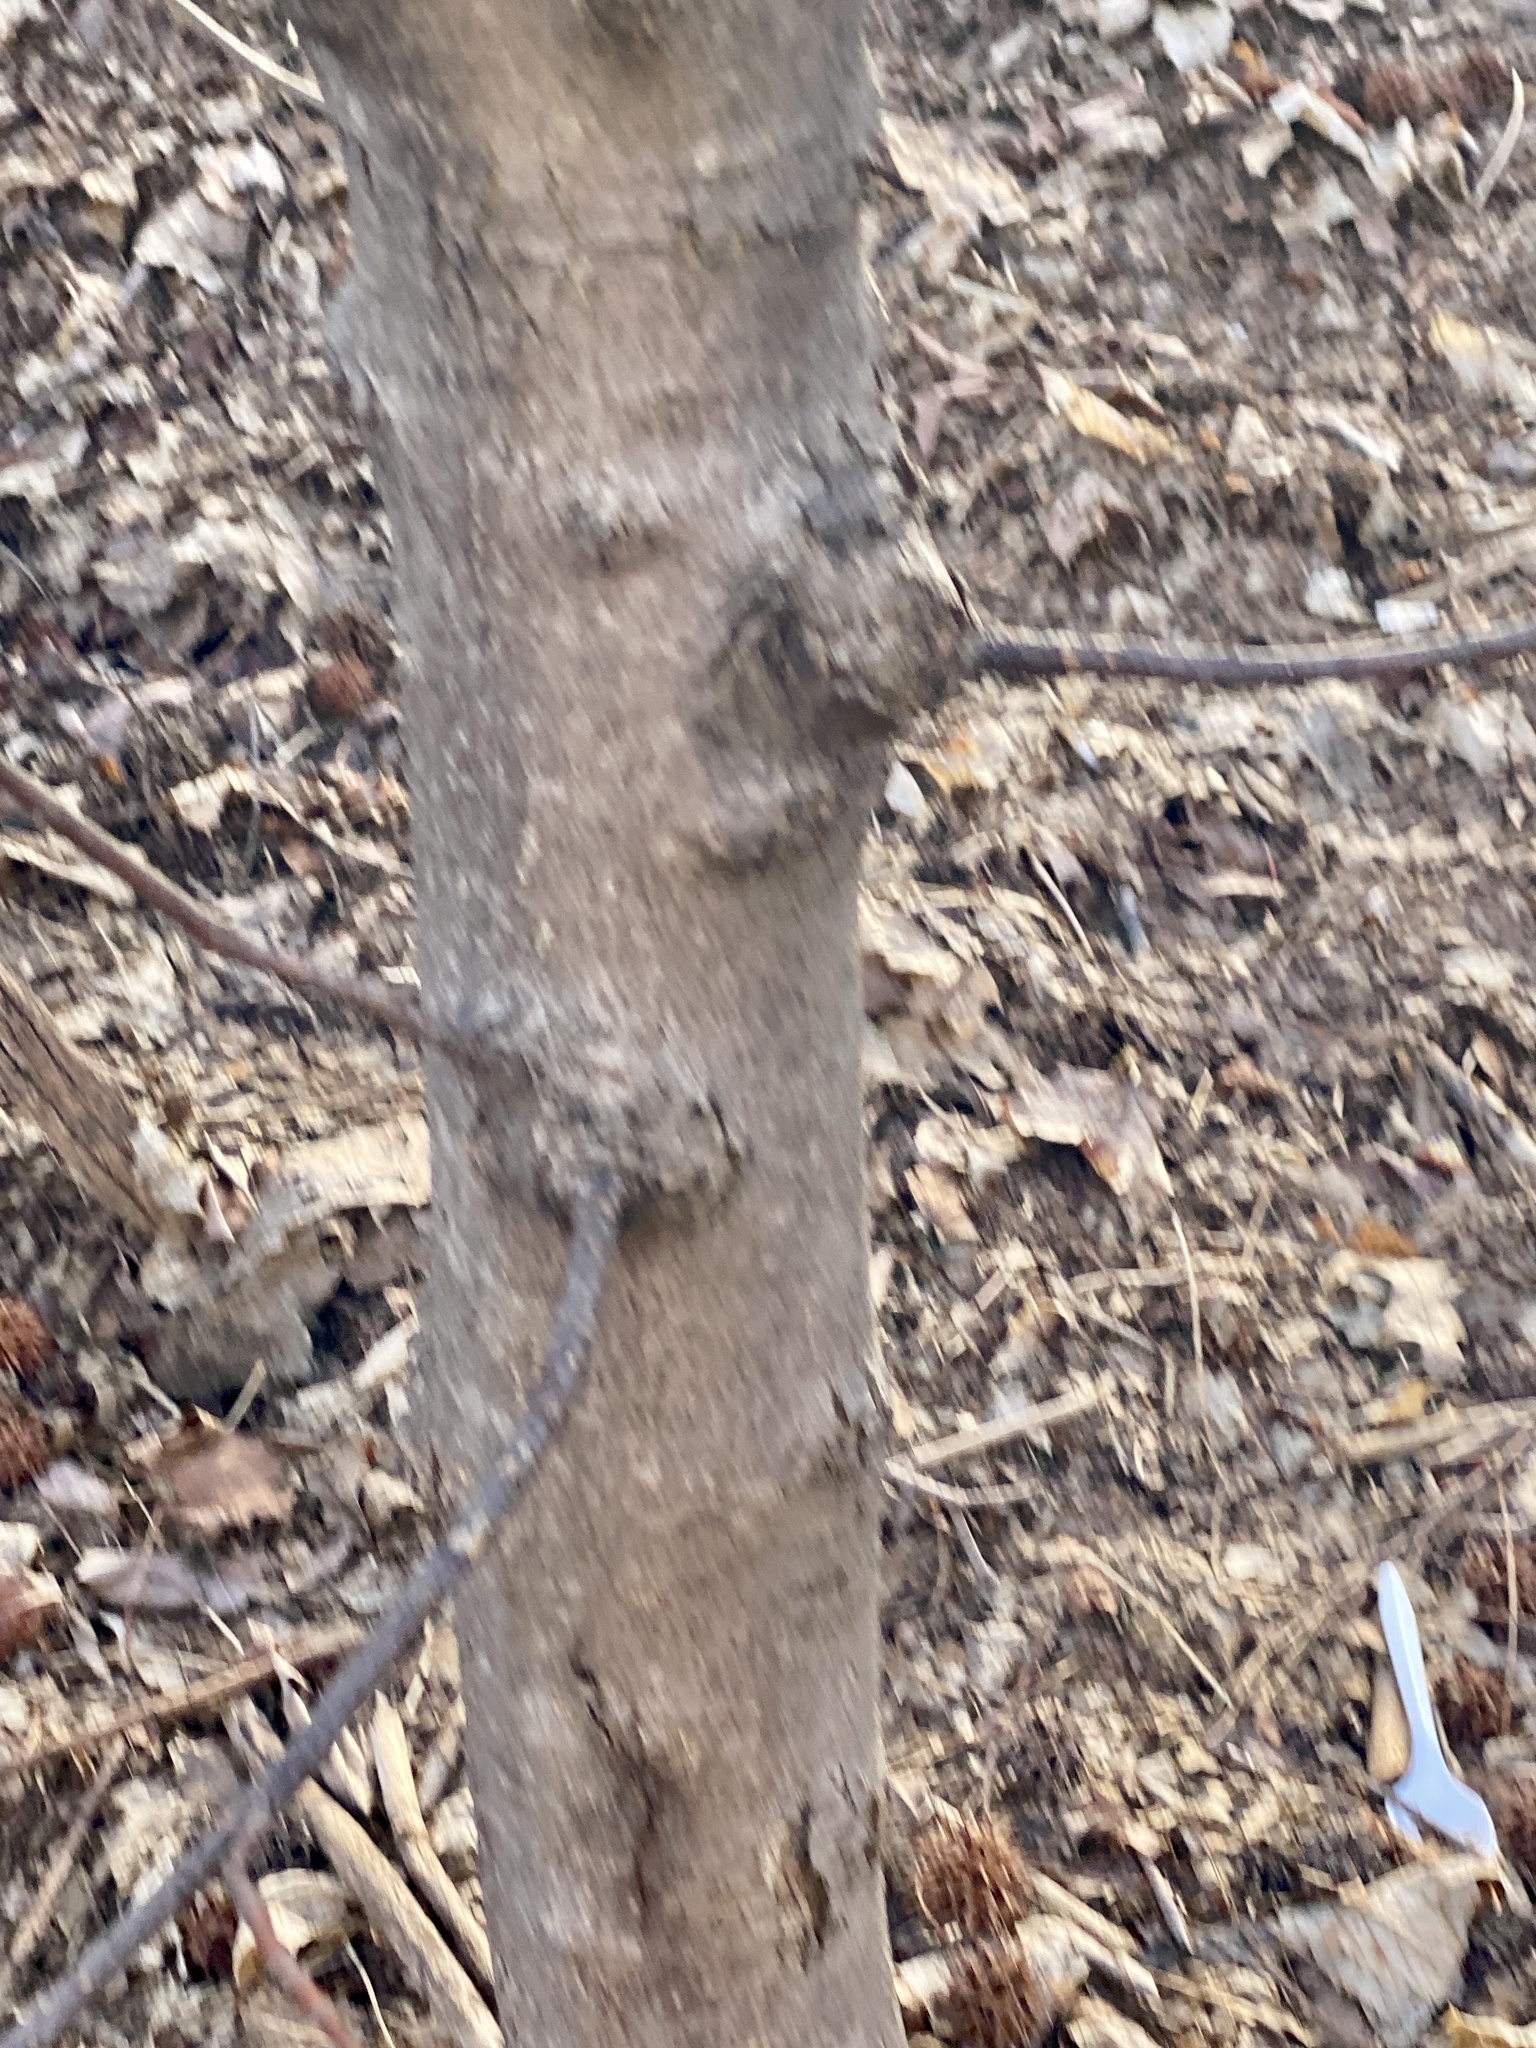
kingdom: Plantae
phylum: Tracheophyta
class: Magnoliopsida
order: Sapindales
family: Sapindaceae
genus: Acer
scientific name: Acer pseudoplatanus
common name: Sycamore
